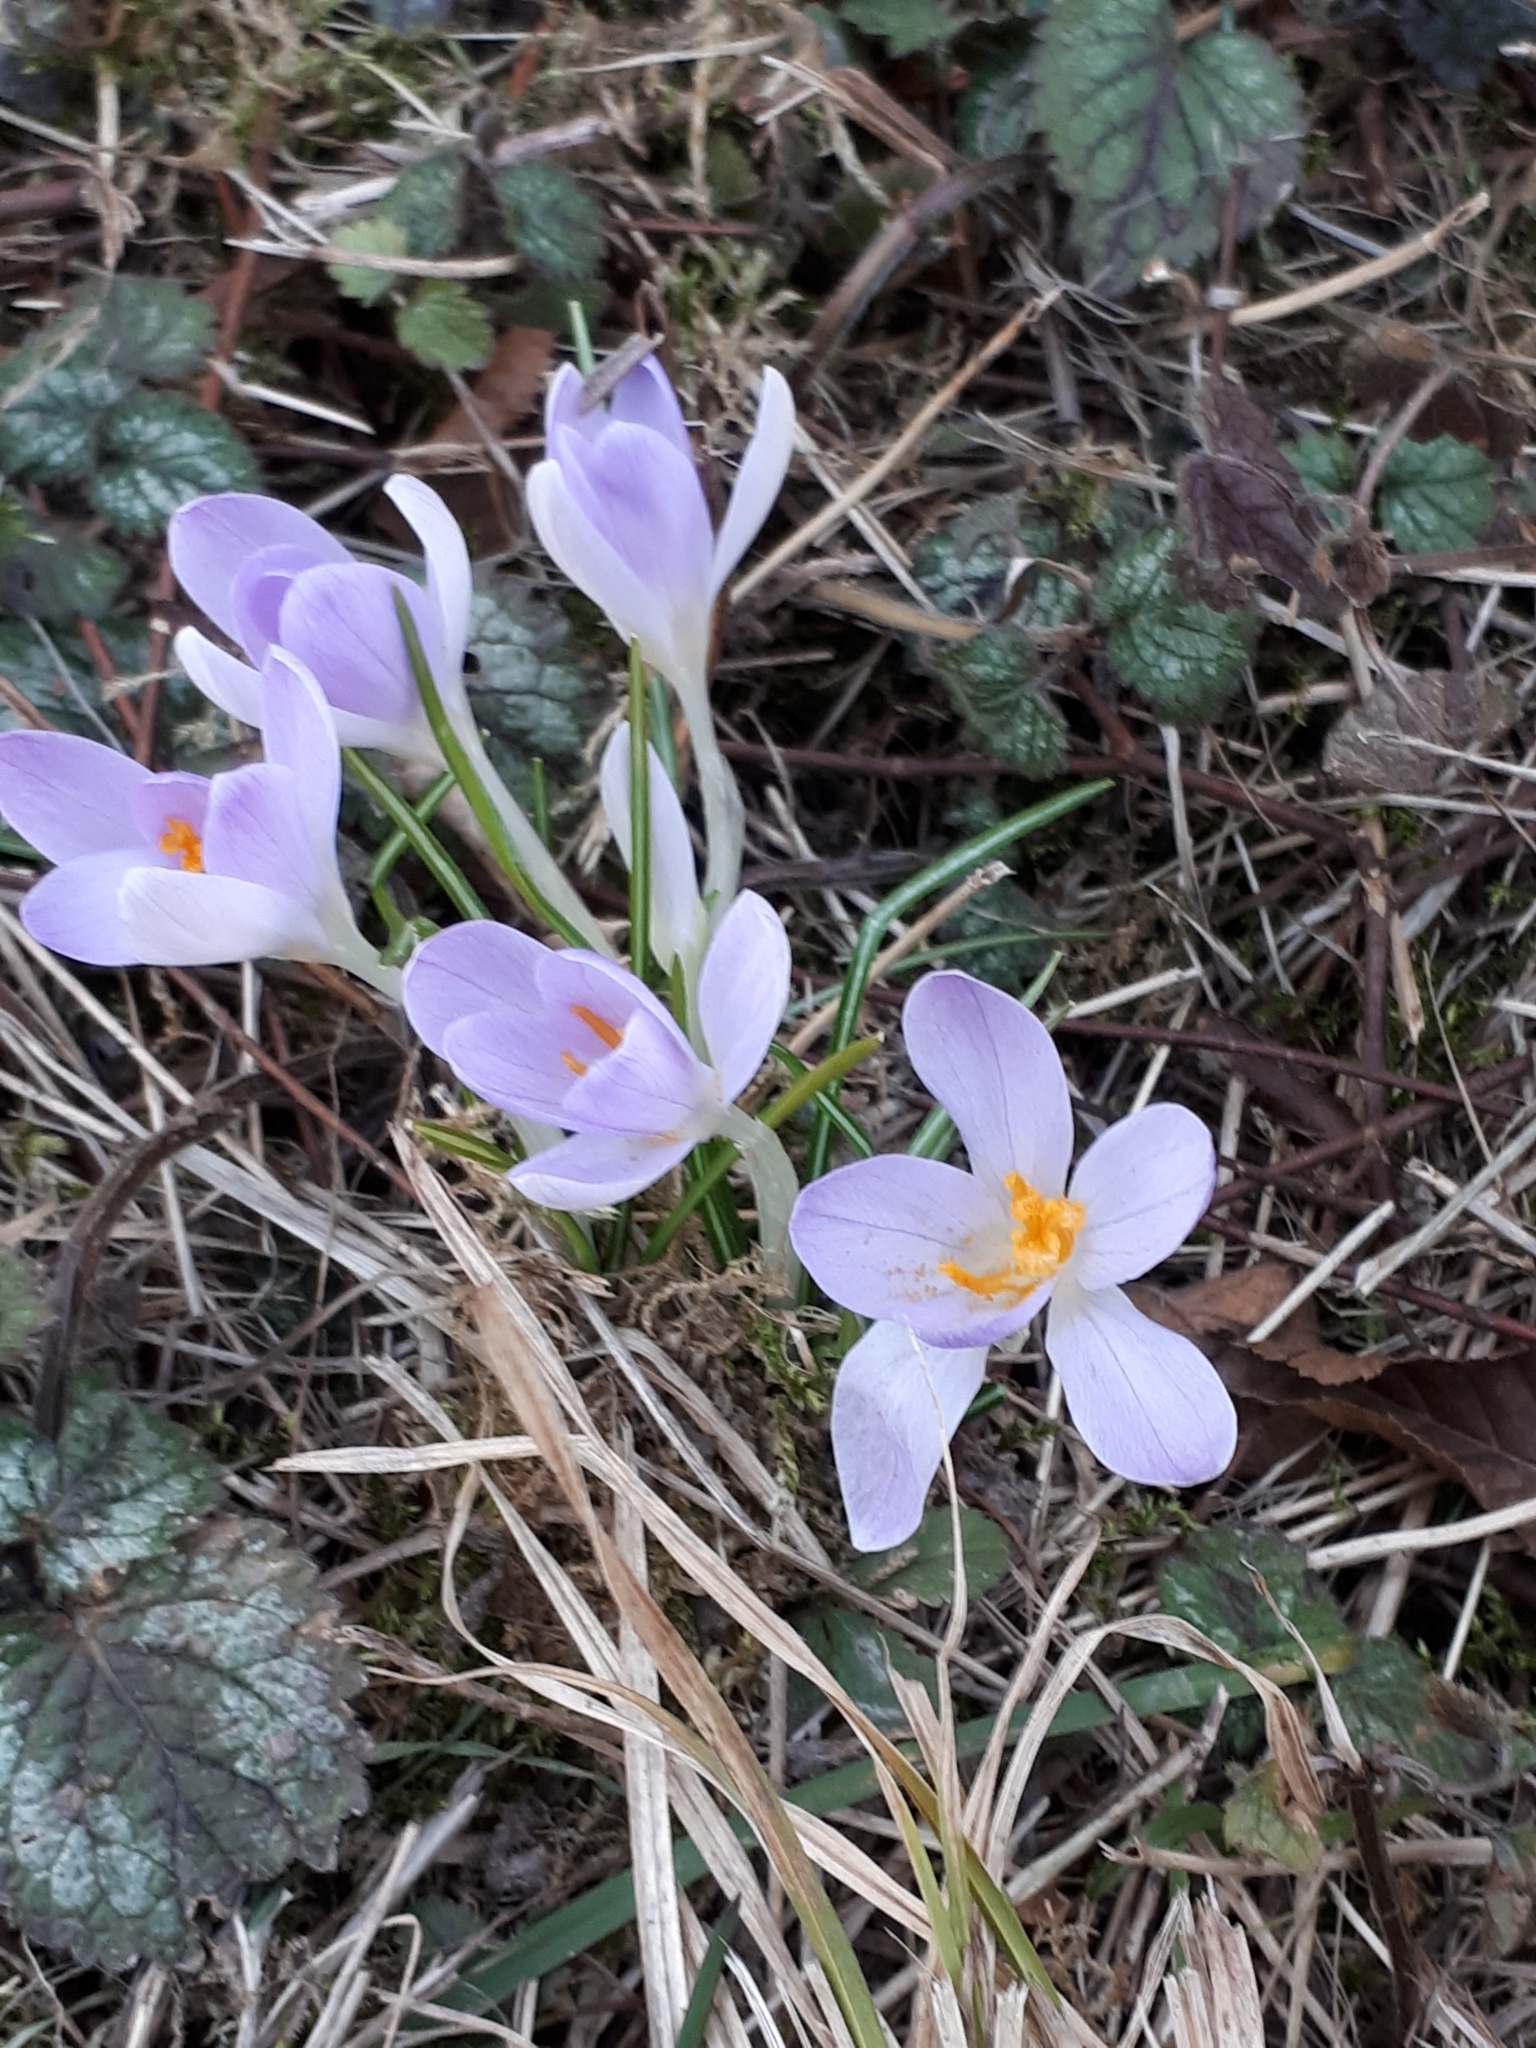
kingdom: Plantae
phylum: Tracheophyta
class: Liliopsida
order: Asparagales
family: Iridaceae
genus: Crocus
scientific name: Crocus tommasinianus
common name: Early crocus
